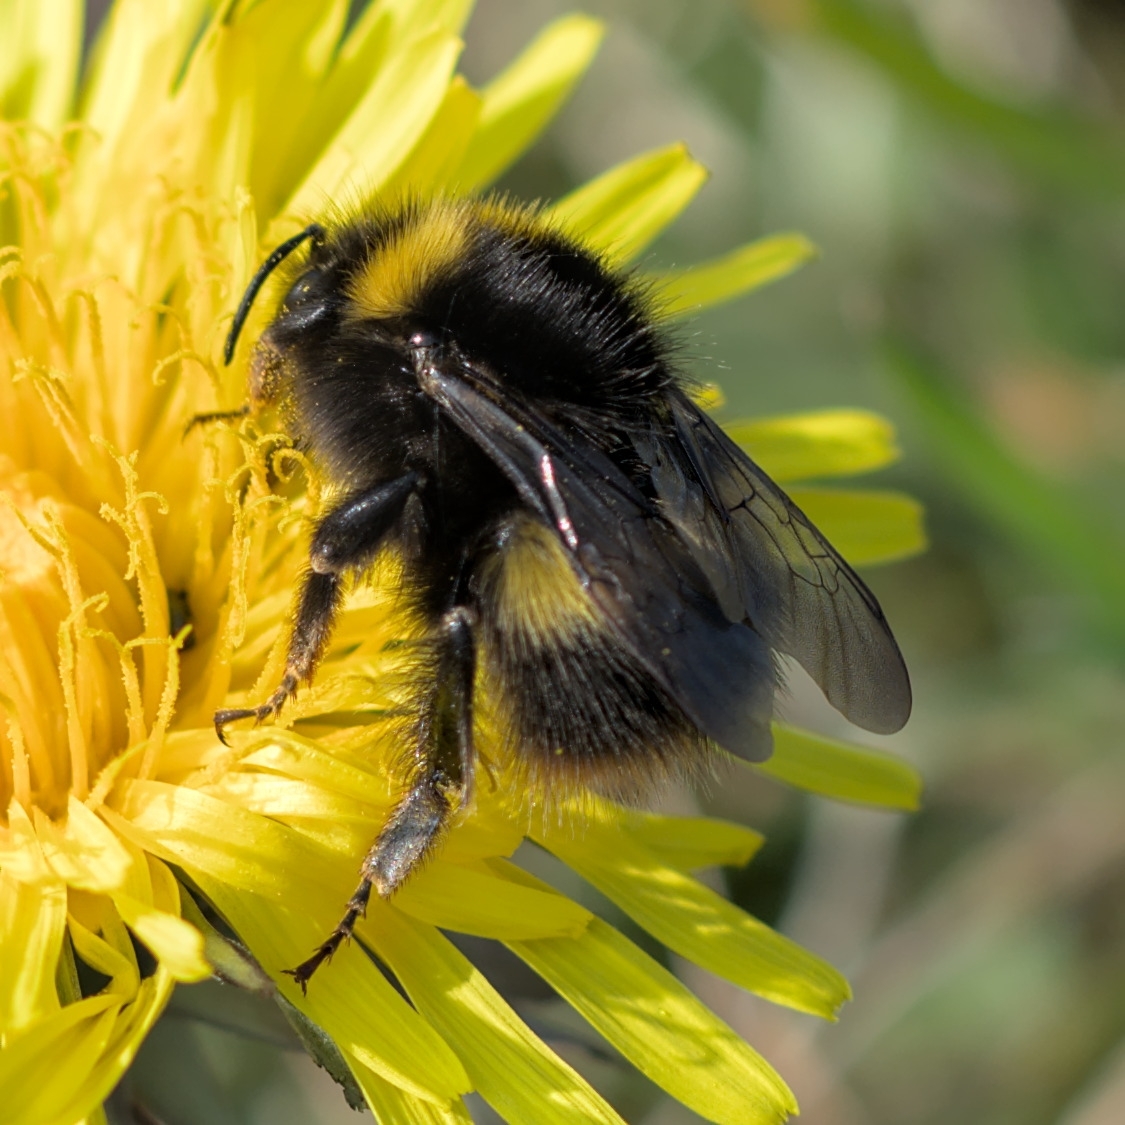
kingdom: Animalia
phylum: Arthropoda
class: Insecta
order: Hymenoptera
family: Apidae
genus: Bombus
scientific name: Bombus pratorum
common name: Early humble-bee
